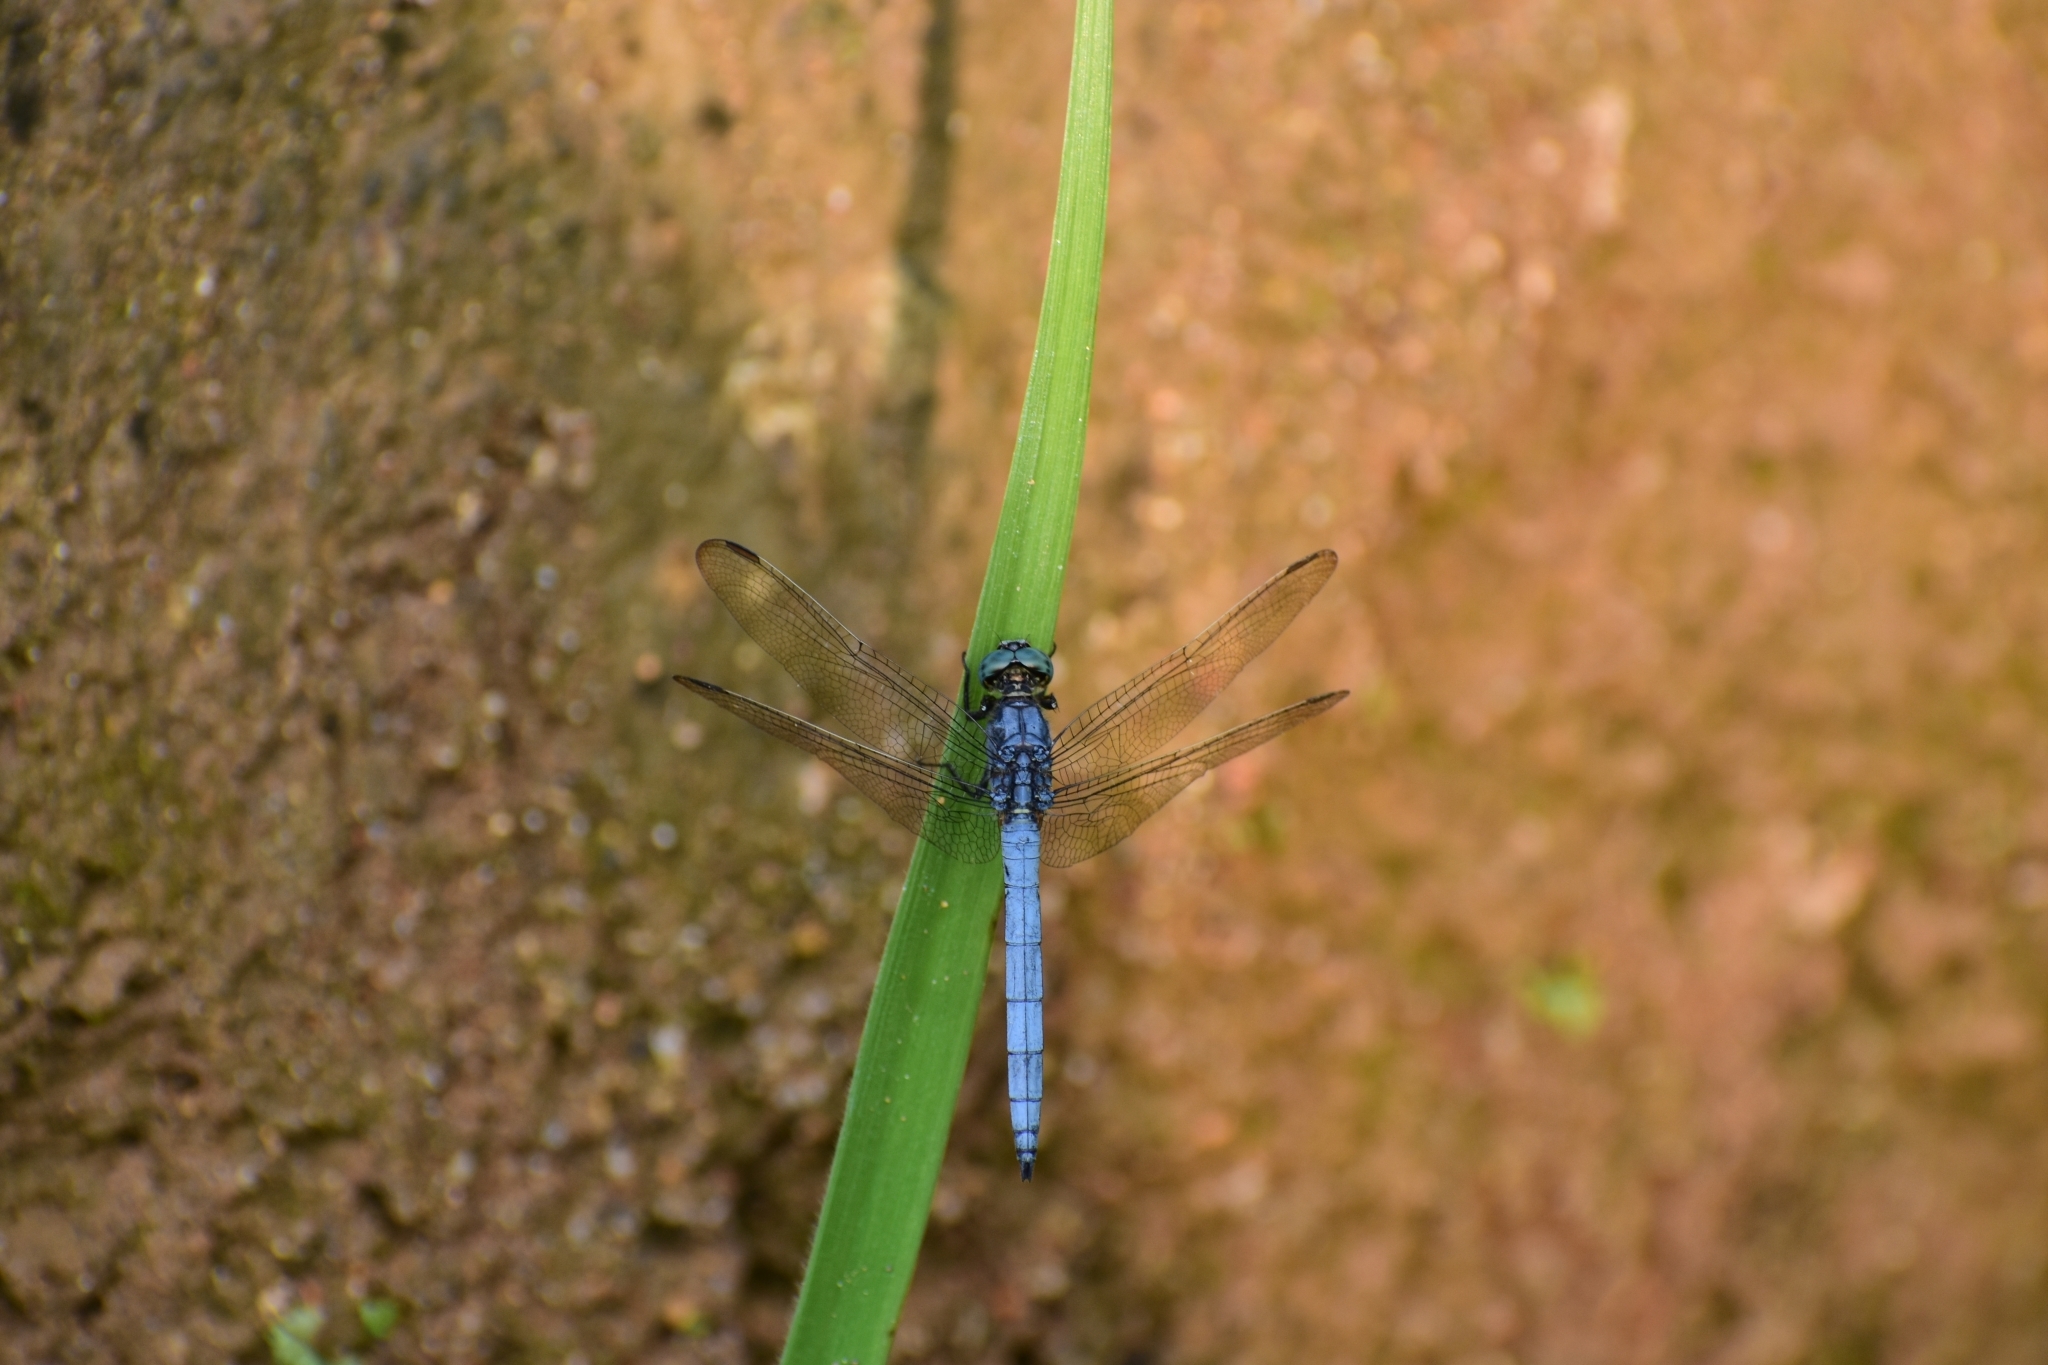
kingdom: Animalia
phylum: Arthropoda
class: Insecta
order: Odonata
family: Libellulidae
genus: Orthetrum
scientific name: Orthetrum luzonicum
